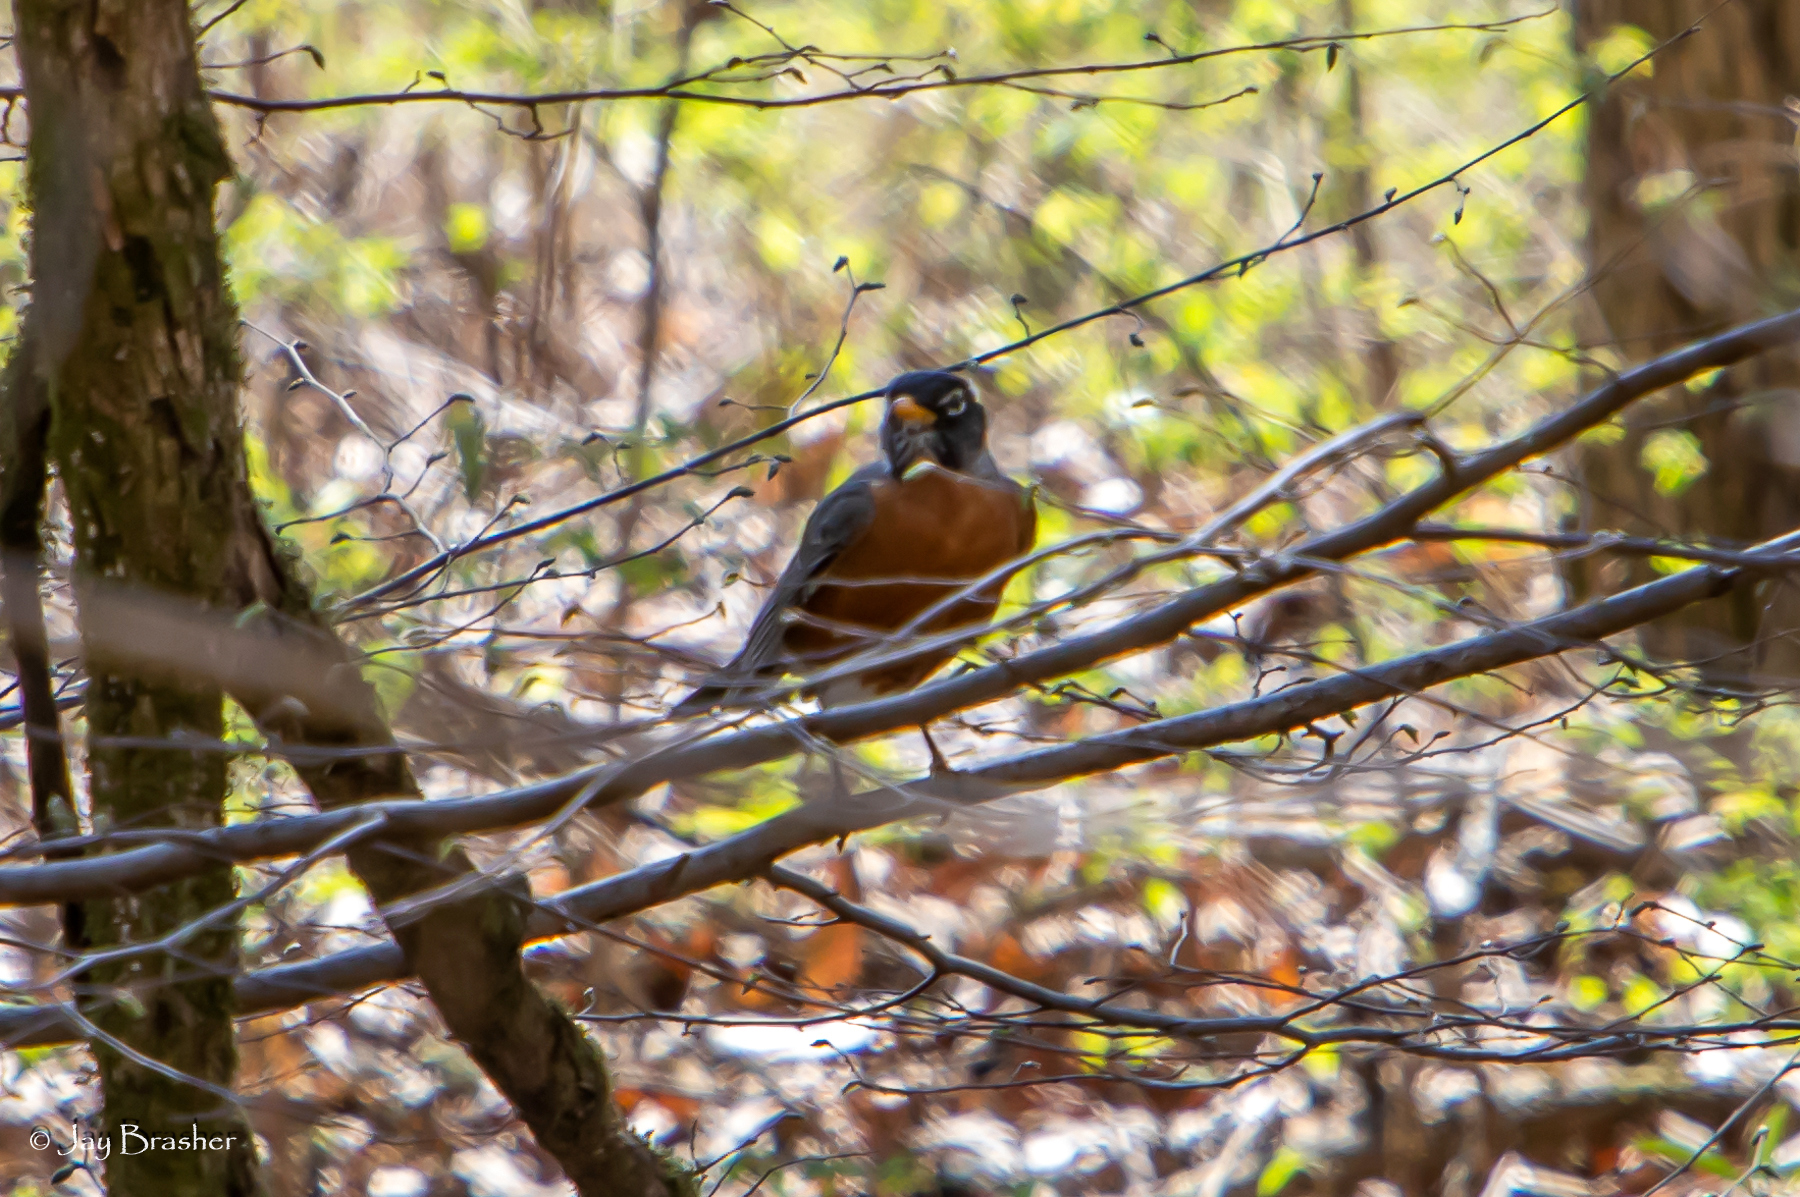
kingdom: Animalia
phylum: Chordata
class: Aves
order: Passeriformes
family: Turdidae
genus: Turdus
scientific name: Turdus migratorius
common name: American robin
